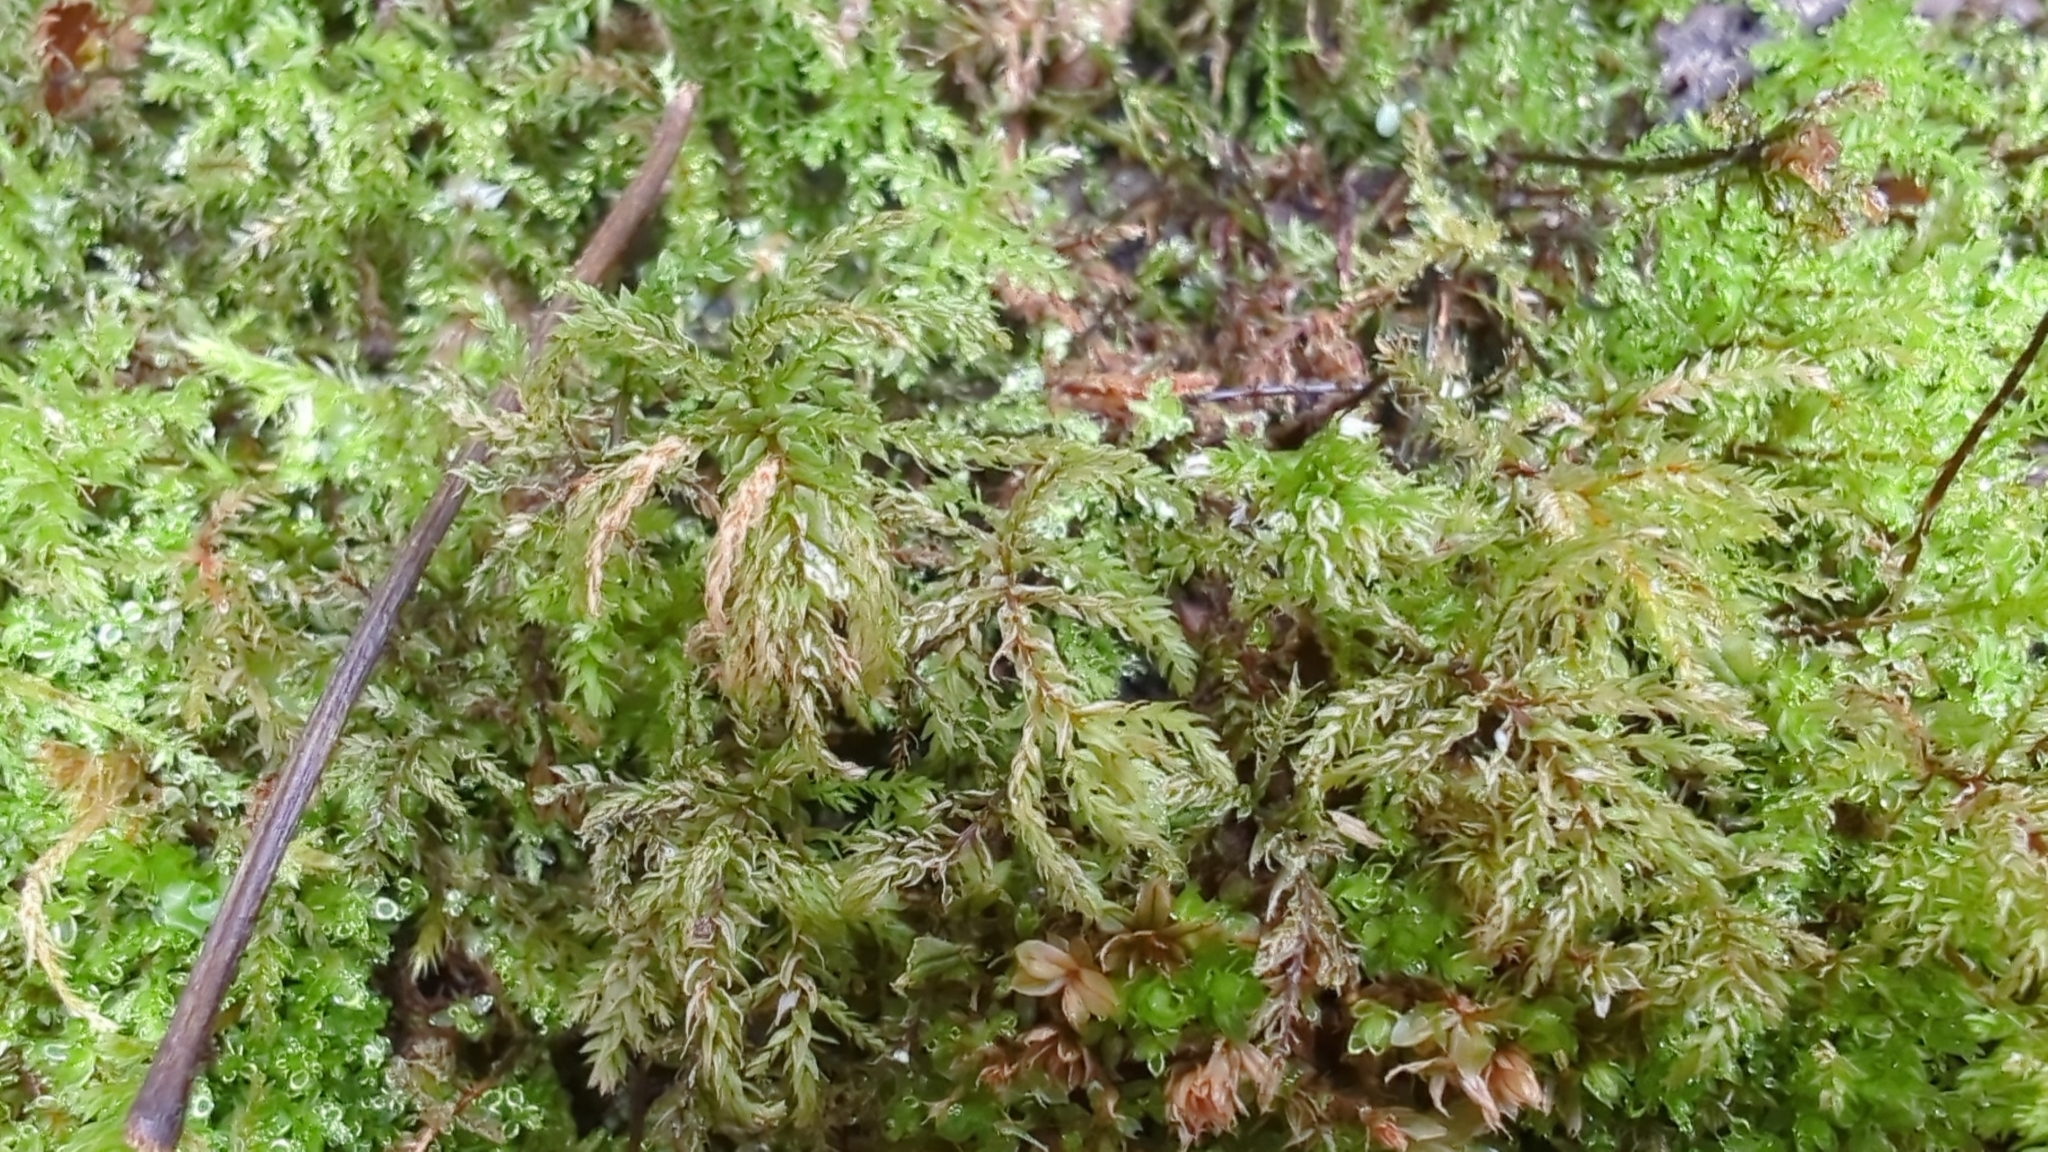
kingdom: Plantae
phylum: Bryophyta
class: Bryopsida
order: Bryales
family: Mniaceae
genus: Leucolepis
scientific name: Leucolepis acanthoneura
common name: Leucolepis umbrella moss
